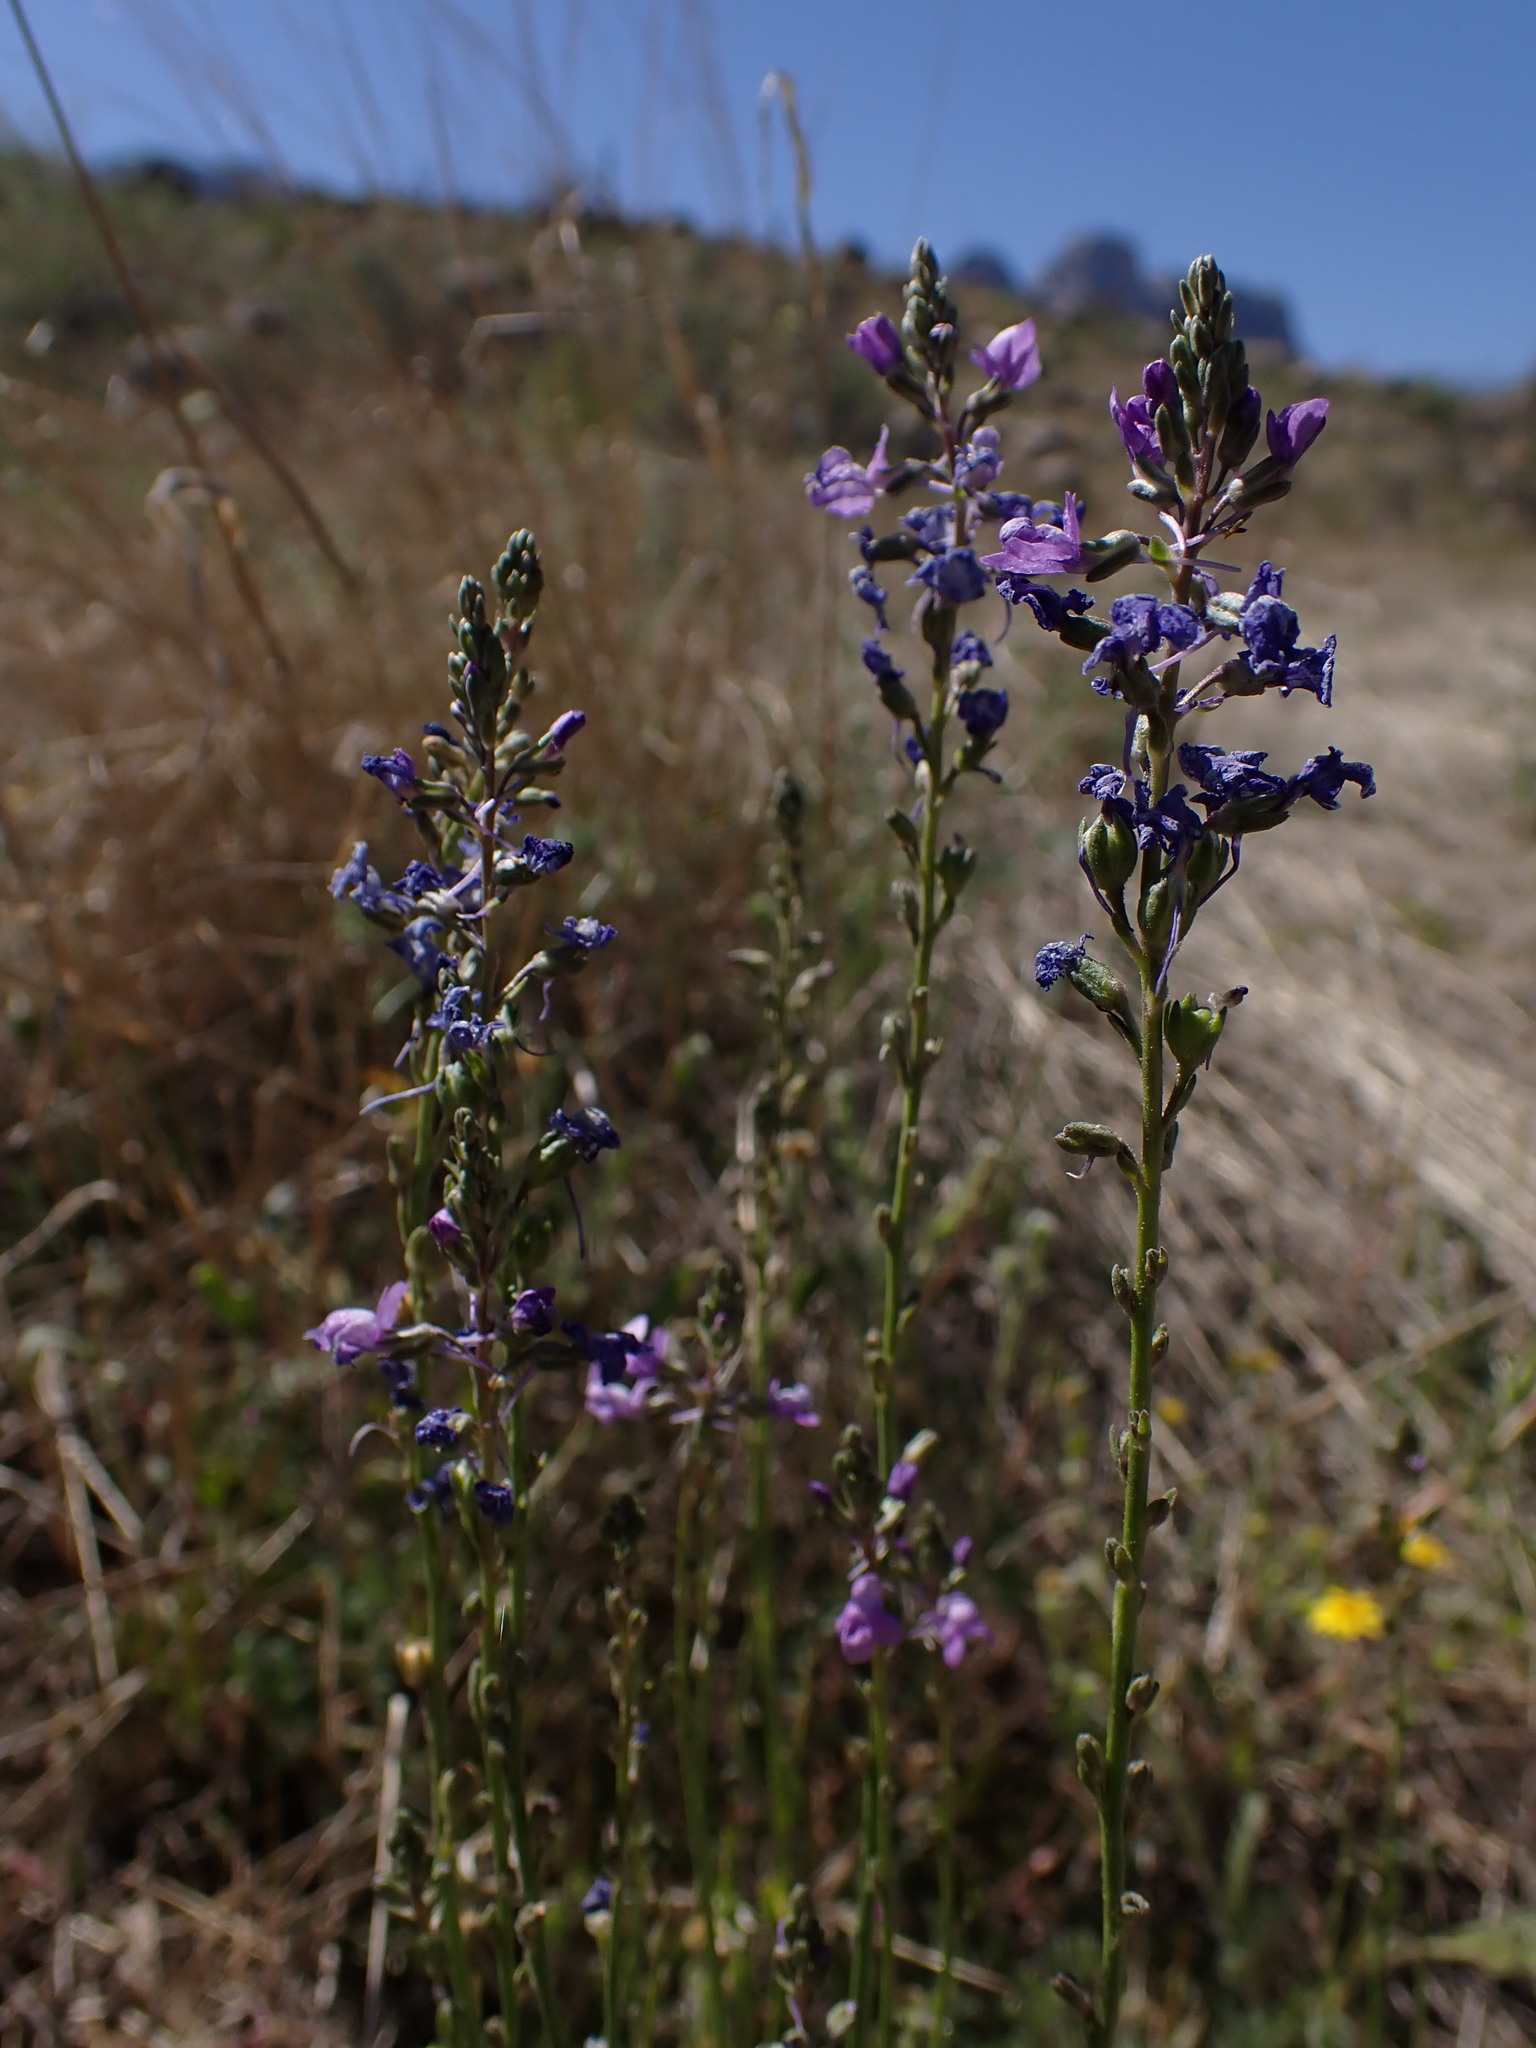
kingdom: Plantae
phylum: Tracheophyta
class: Magnoliopsida
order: Lamiales
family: Plantaginaceae
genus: Nuttallanthus
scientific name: Nuttallanthus texanus
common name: Texas toadflax
